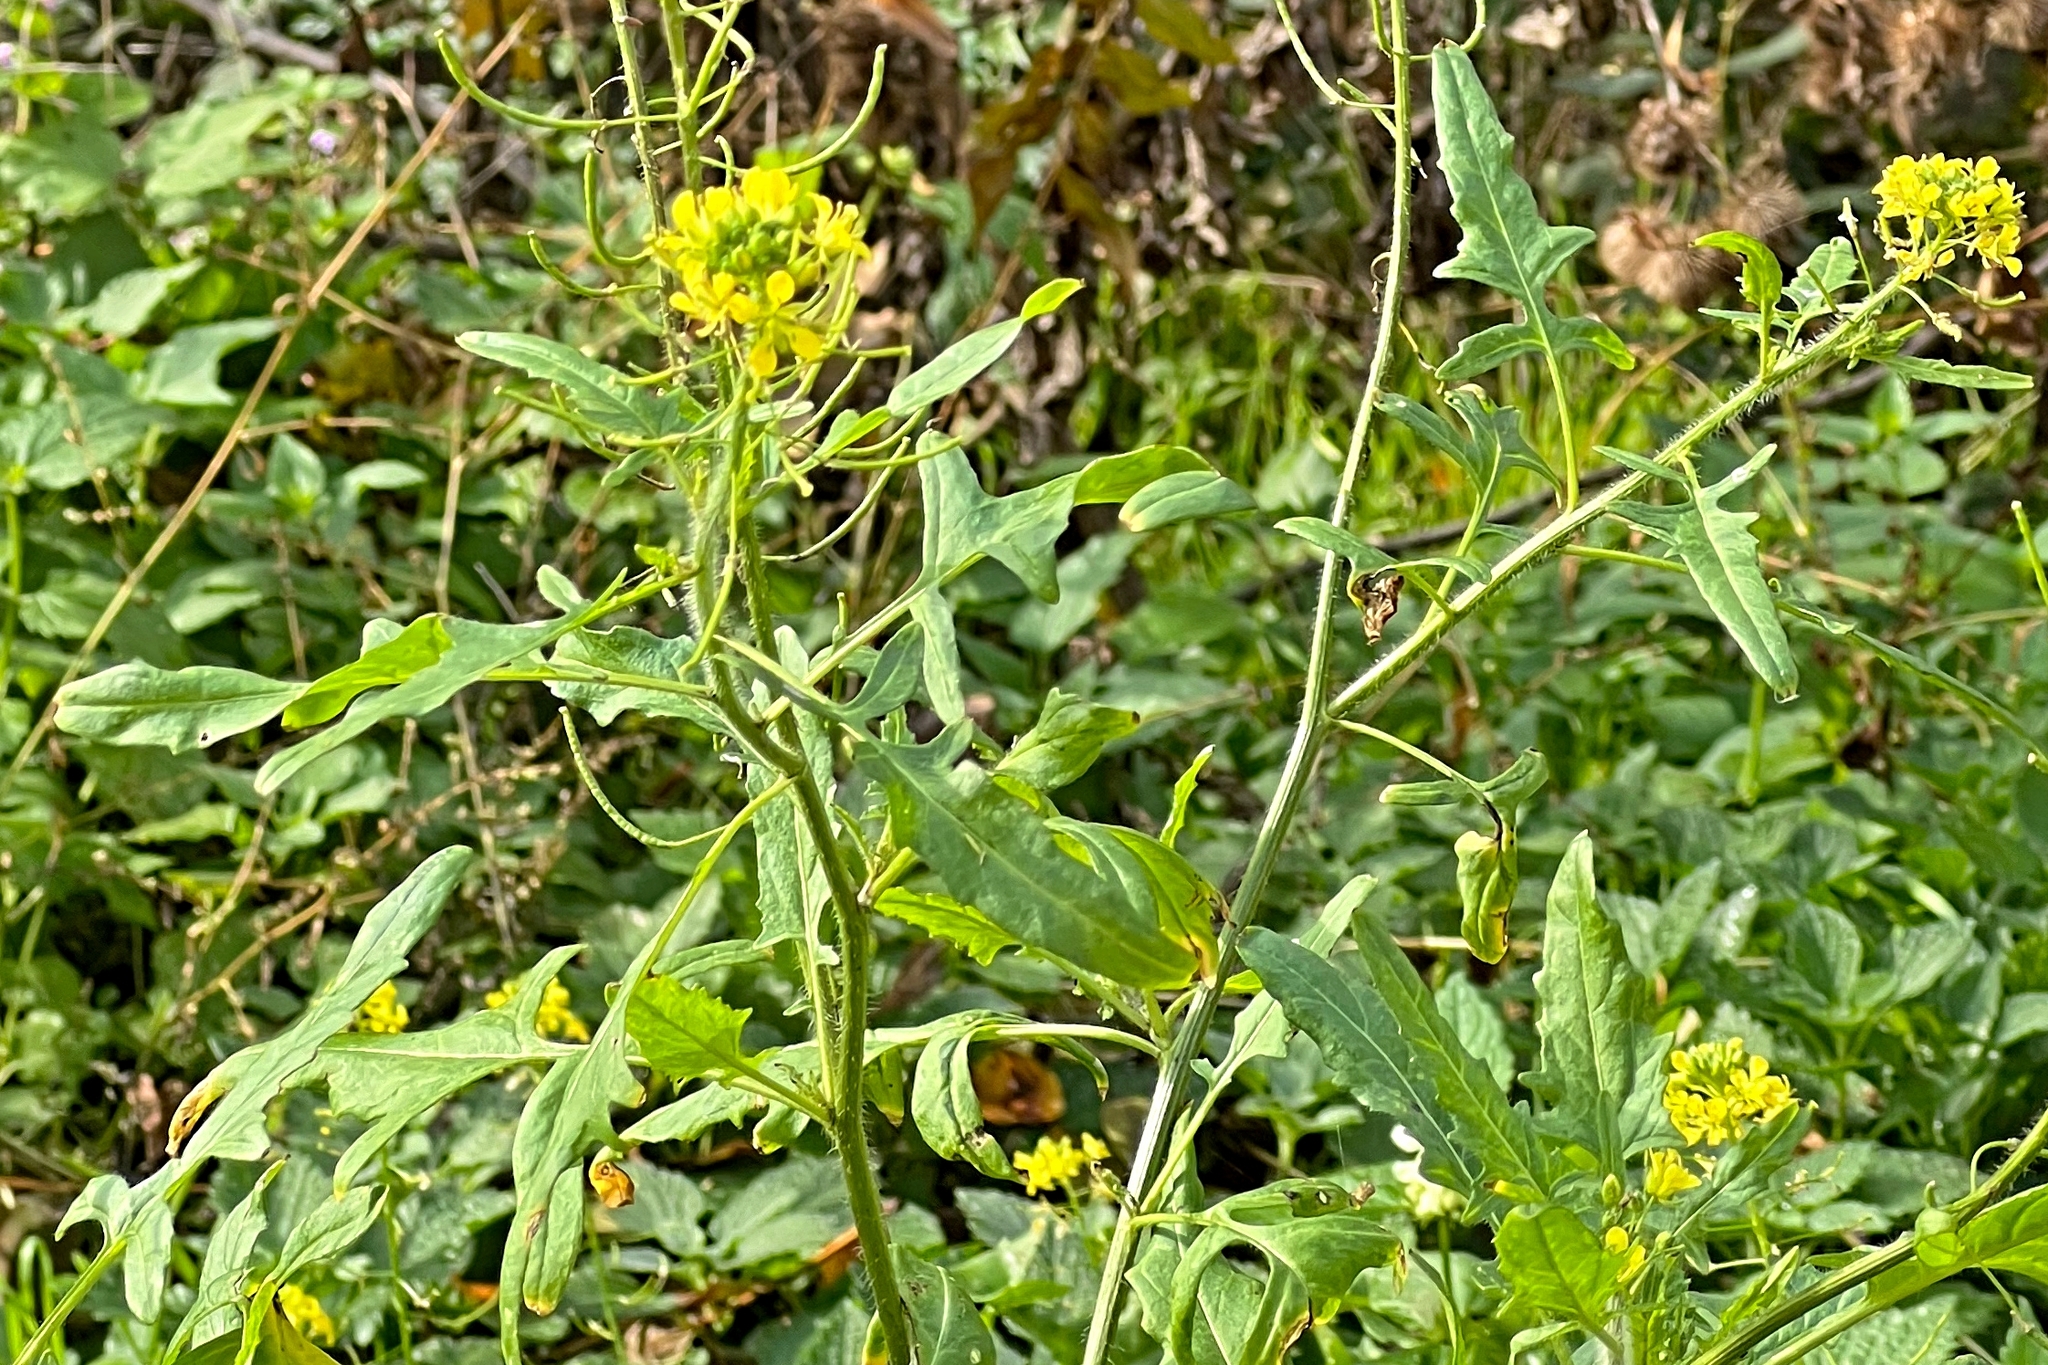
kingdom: Plantae
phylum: Tracheophyta
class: Magnoliopsida
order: Brassicales
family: Brassicaceae
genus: Sisymbrium
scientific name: Sisymbrium loeselii
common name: False london-rocket
